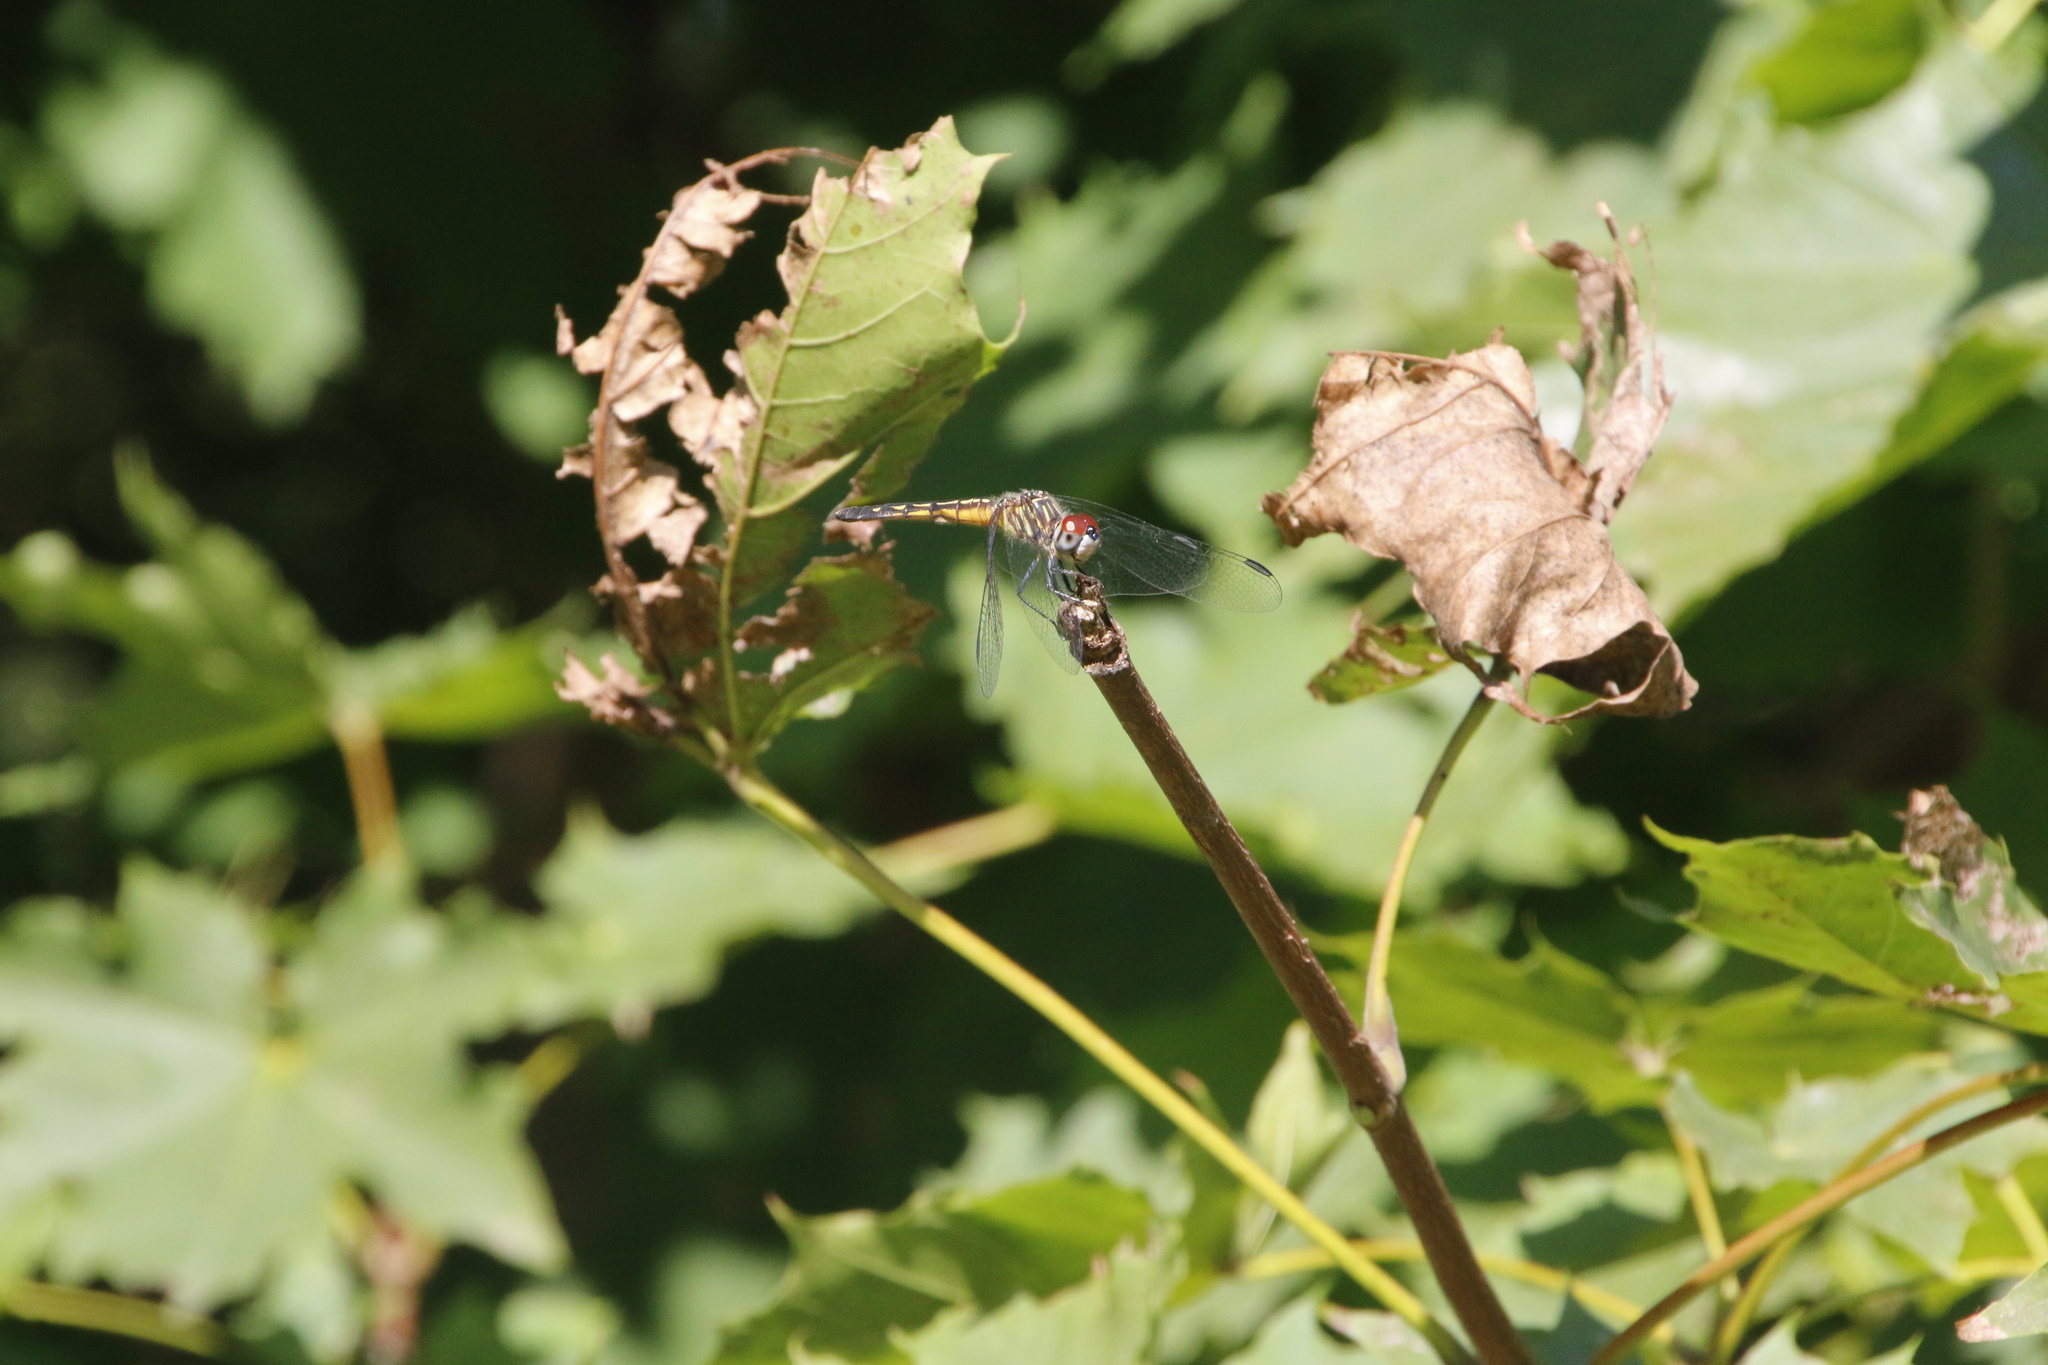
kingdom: Animalia
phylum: Arthropoda
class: Insecta
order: Odonata
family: Libellulidae
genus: Pachydiplax
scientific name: Pachydiplax longipennis
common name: Blue dasher
